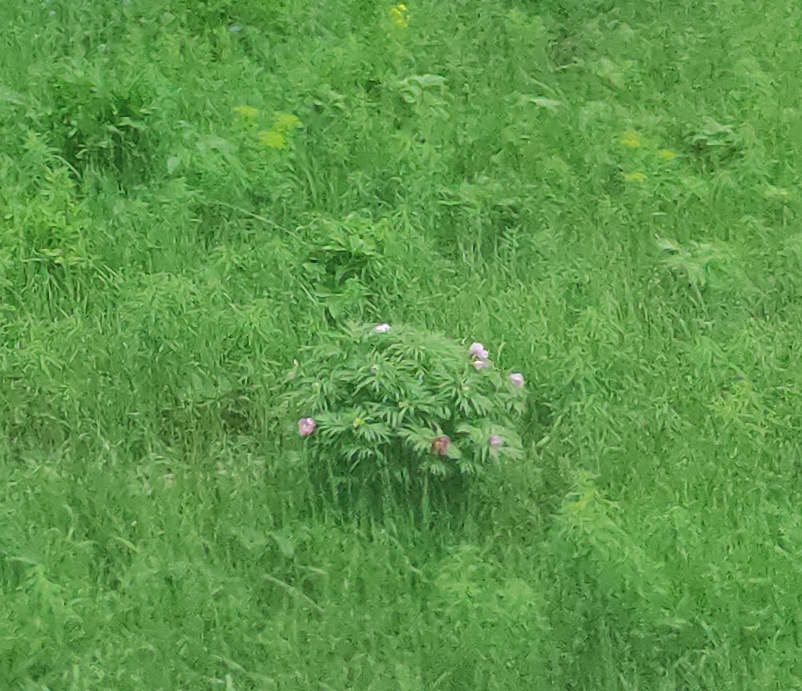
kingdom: Plantae
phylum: Tracheophyta
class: Magnoliopsida
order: Saxifragales
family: Paeoniaceae
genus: Paeonia
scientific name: Paeonia anomala
